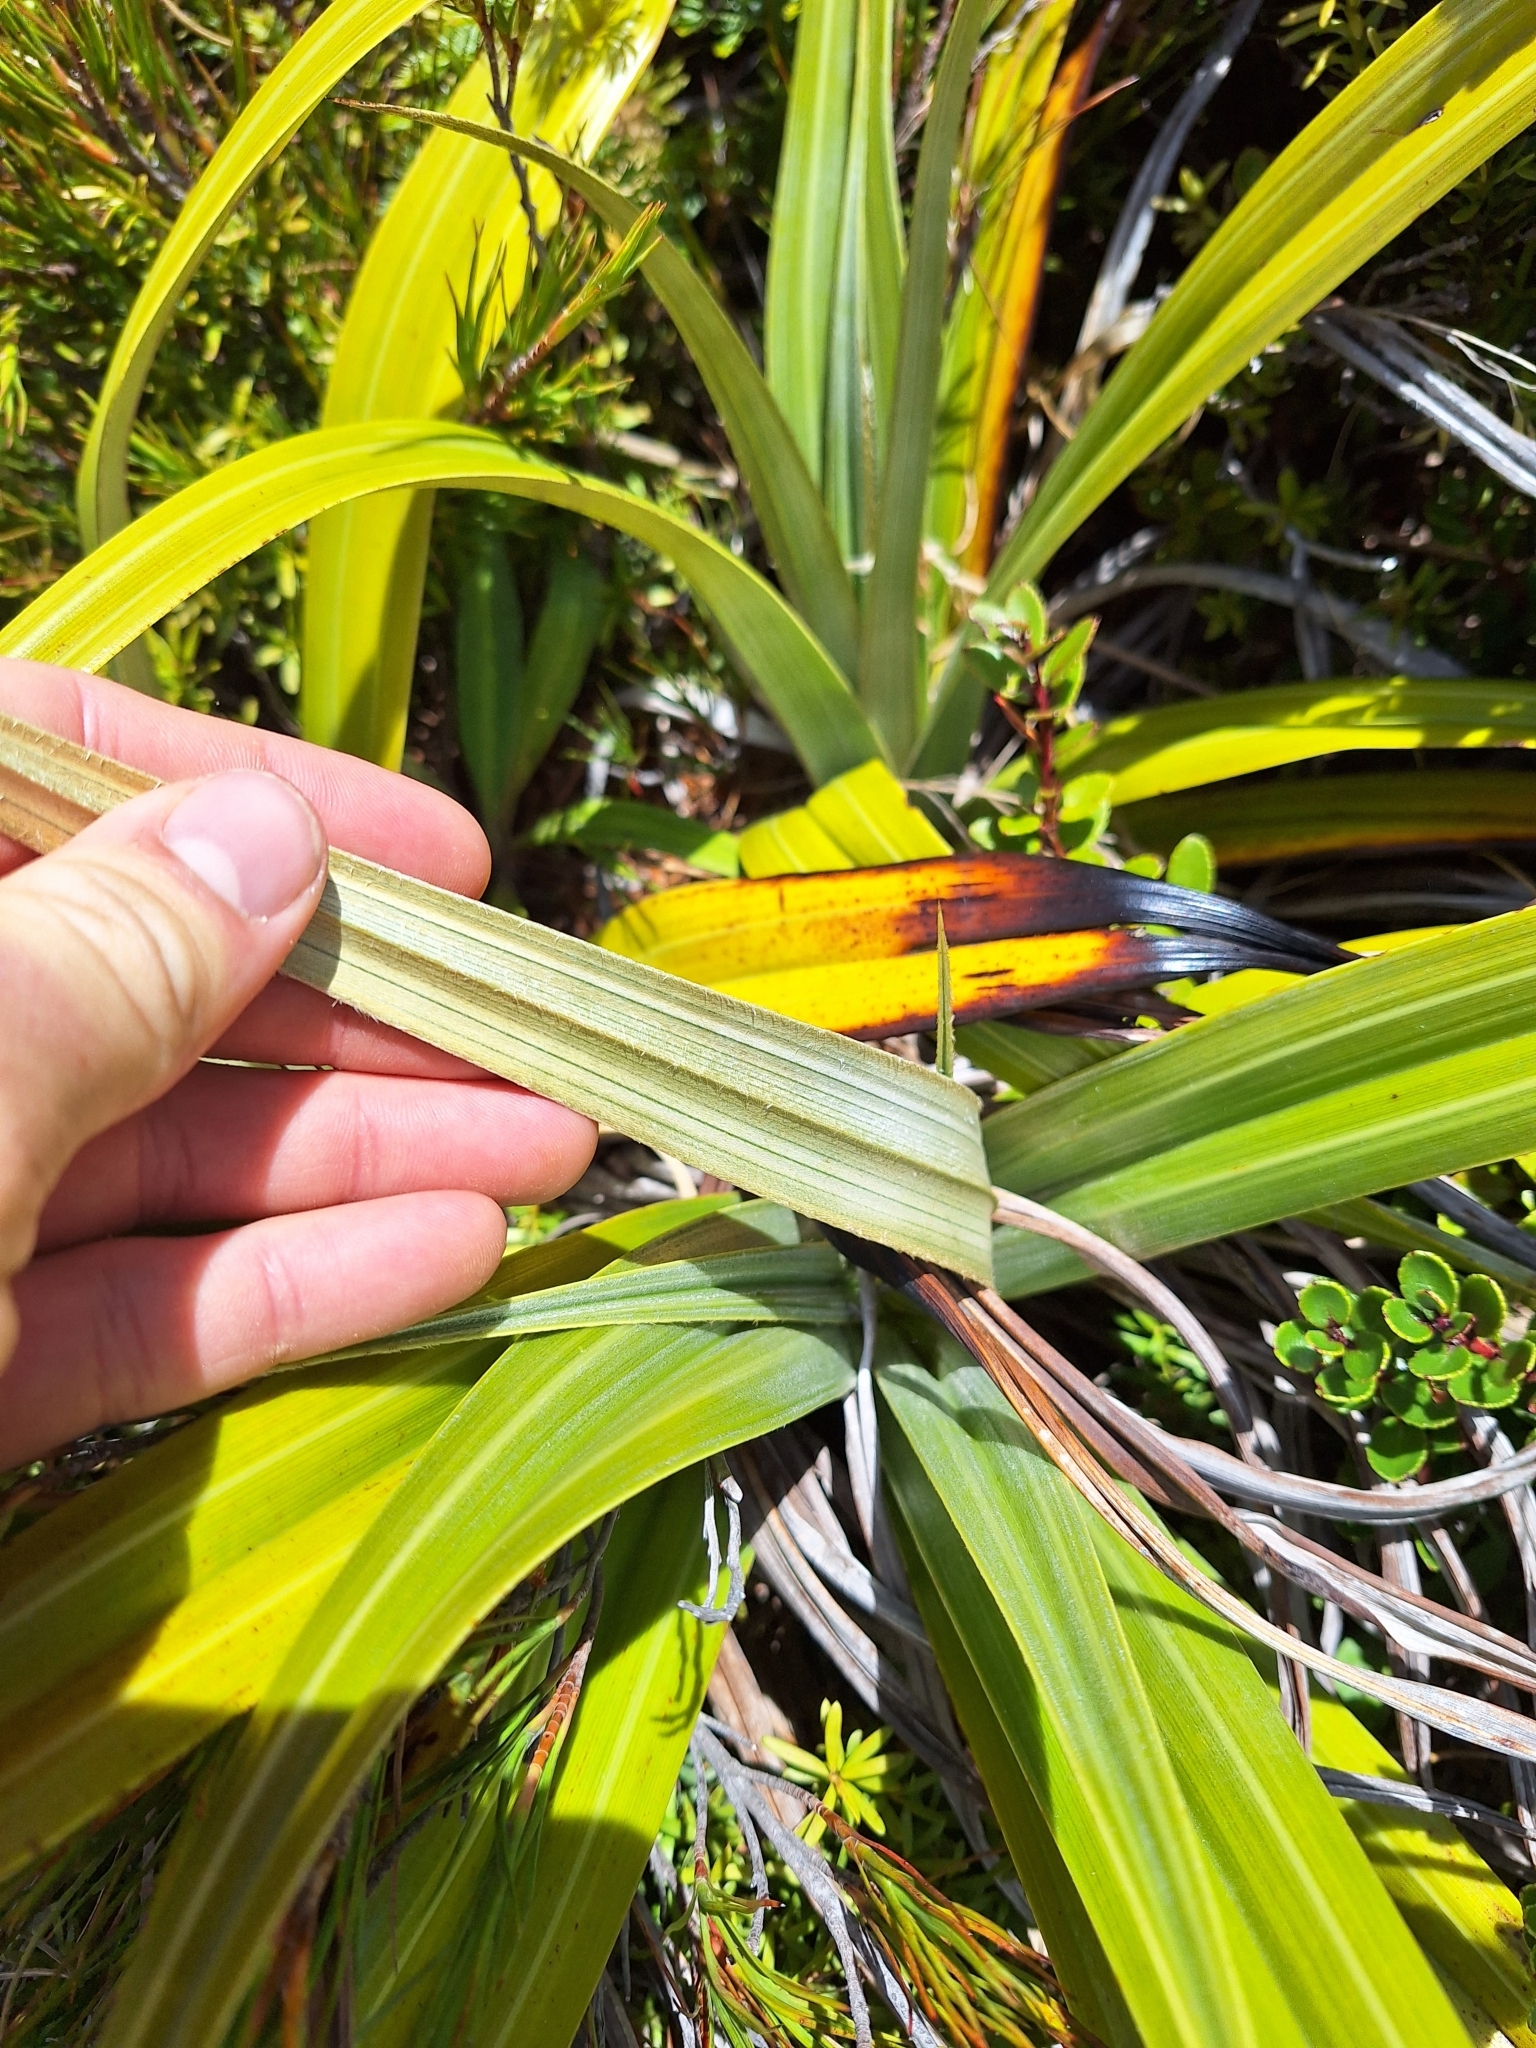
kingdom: Plantae
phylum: Tracheophyta
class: Liliopsida
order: Asparagales
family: Asteliaceae
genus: Astelia
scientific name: Astelia petriei
